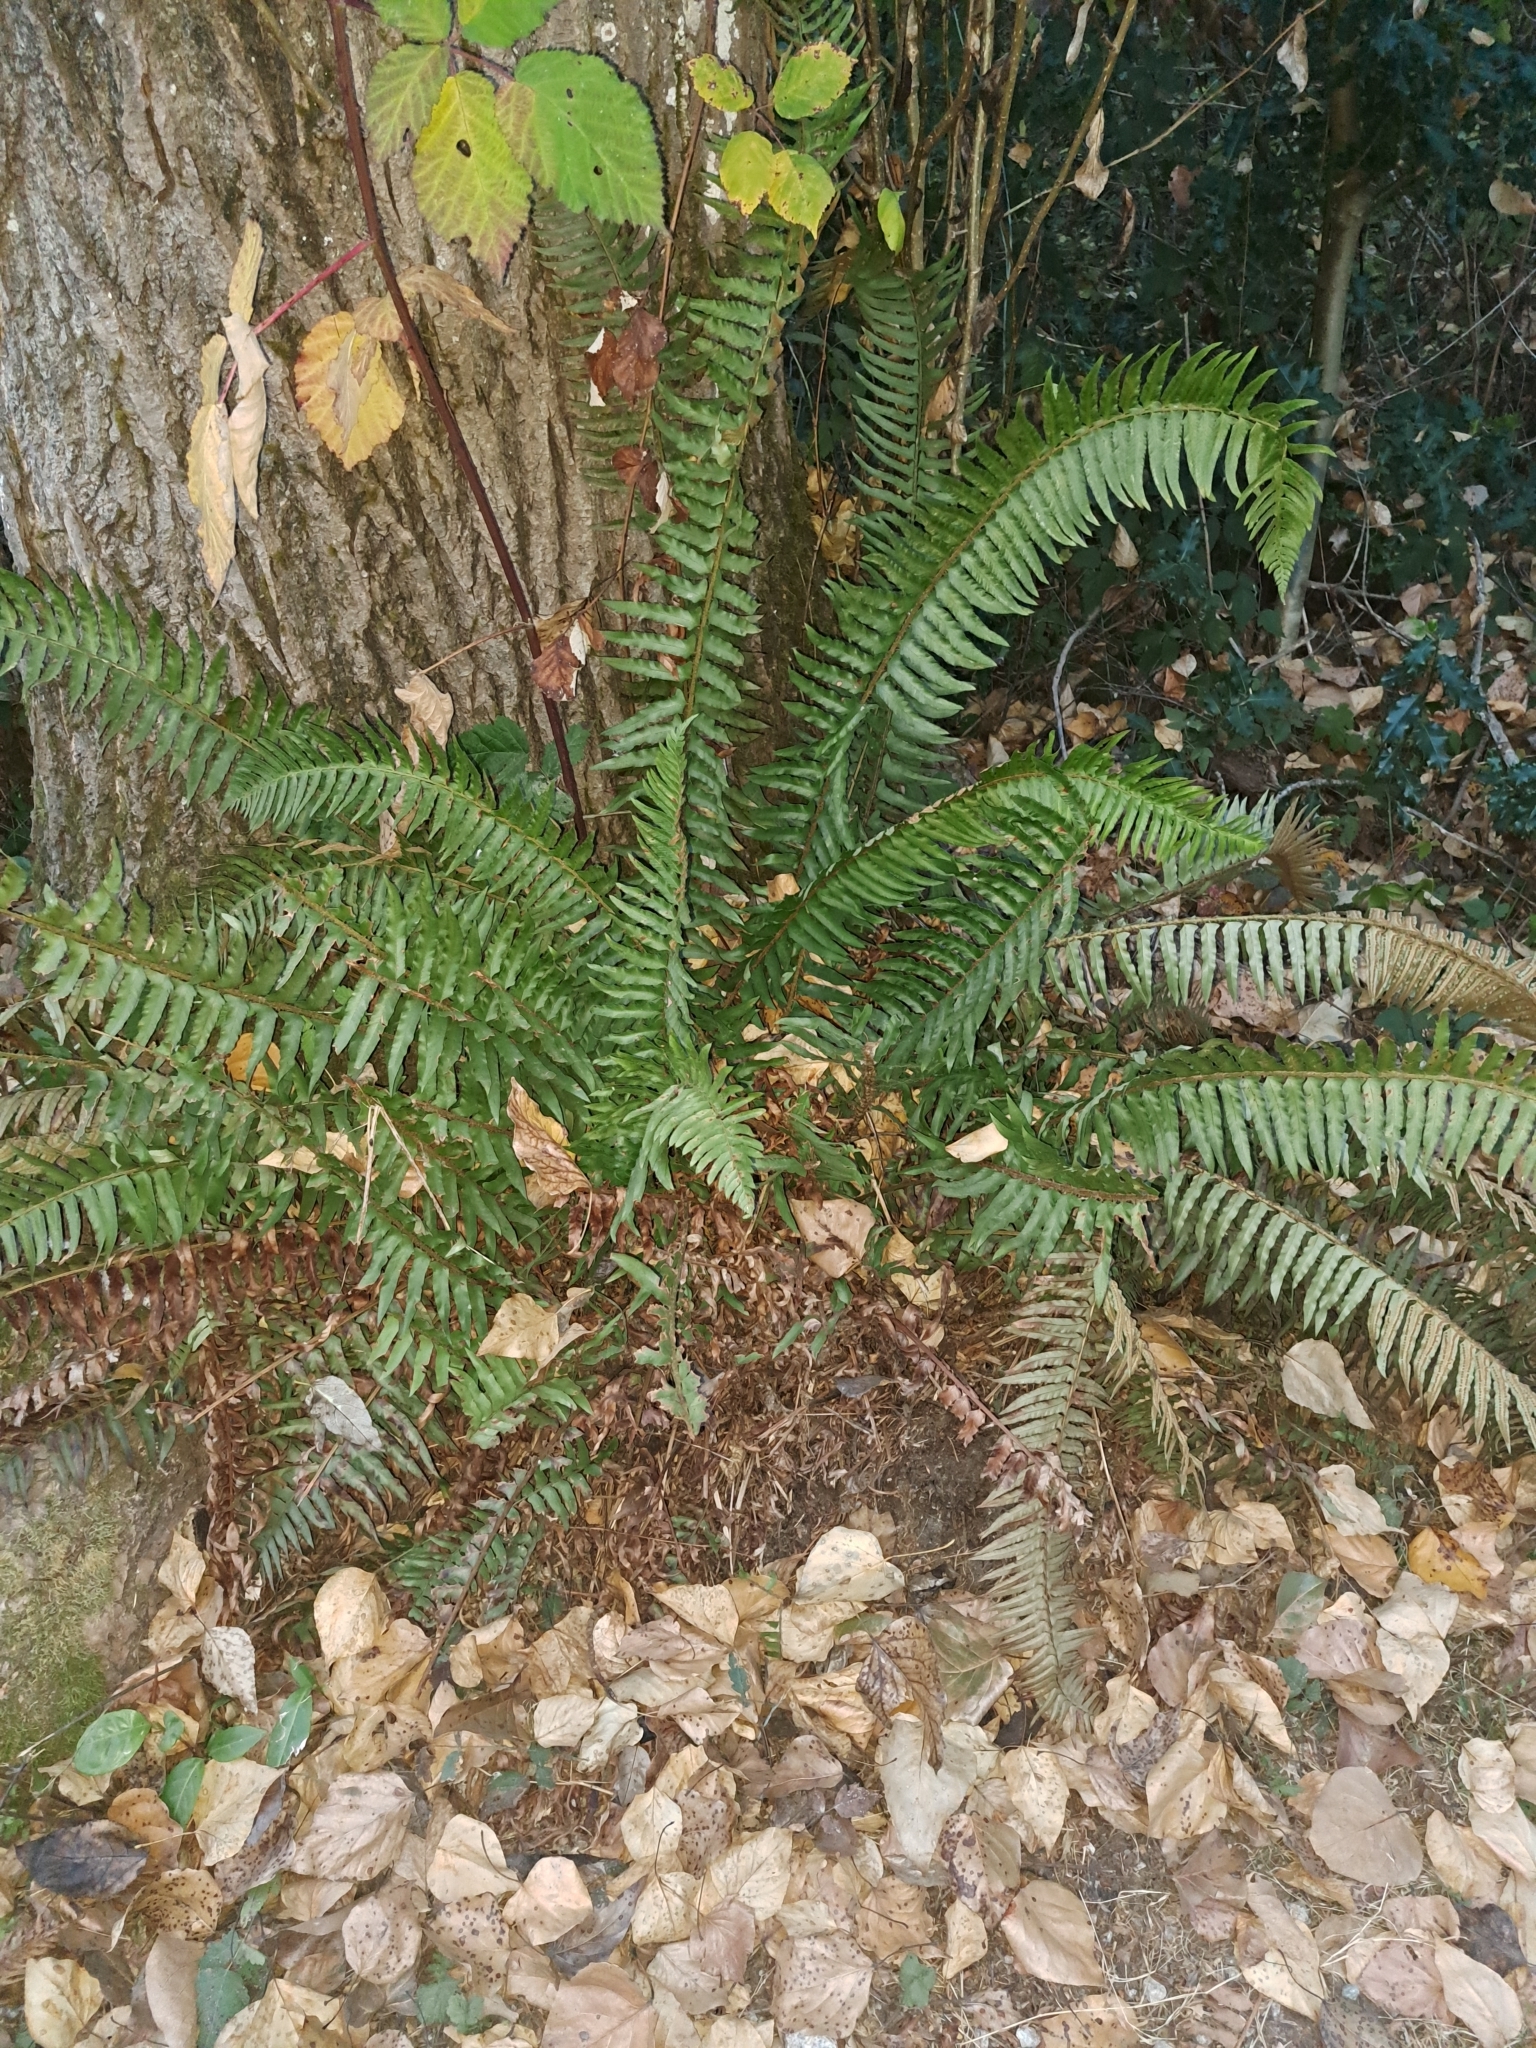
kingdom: Plantae
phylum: Tracheophyta
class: Polypodiopsida
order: Polypodiales
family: Dryopteridaceae
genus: Polystichum
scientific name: Polystichum munitum
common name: Western sword-fern
